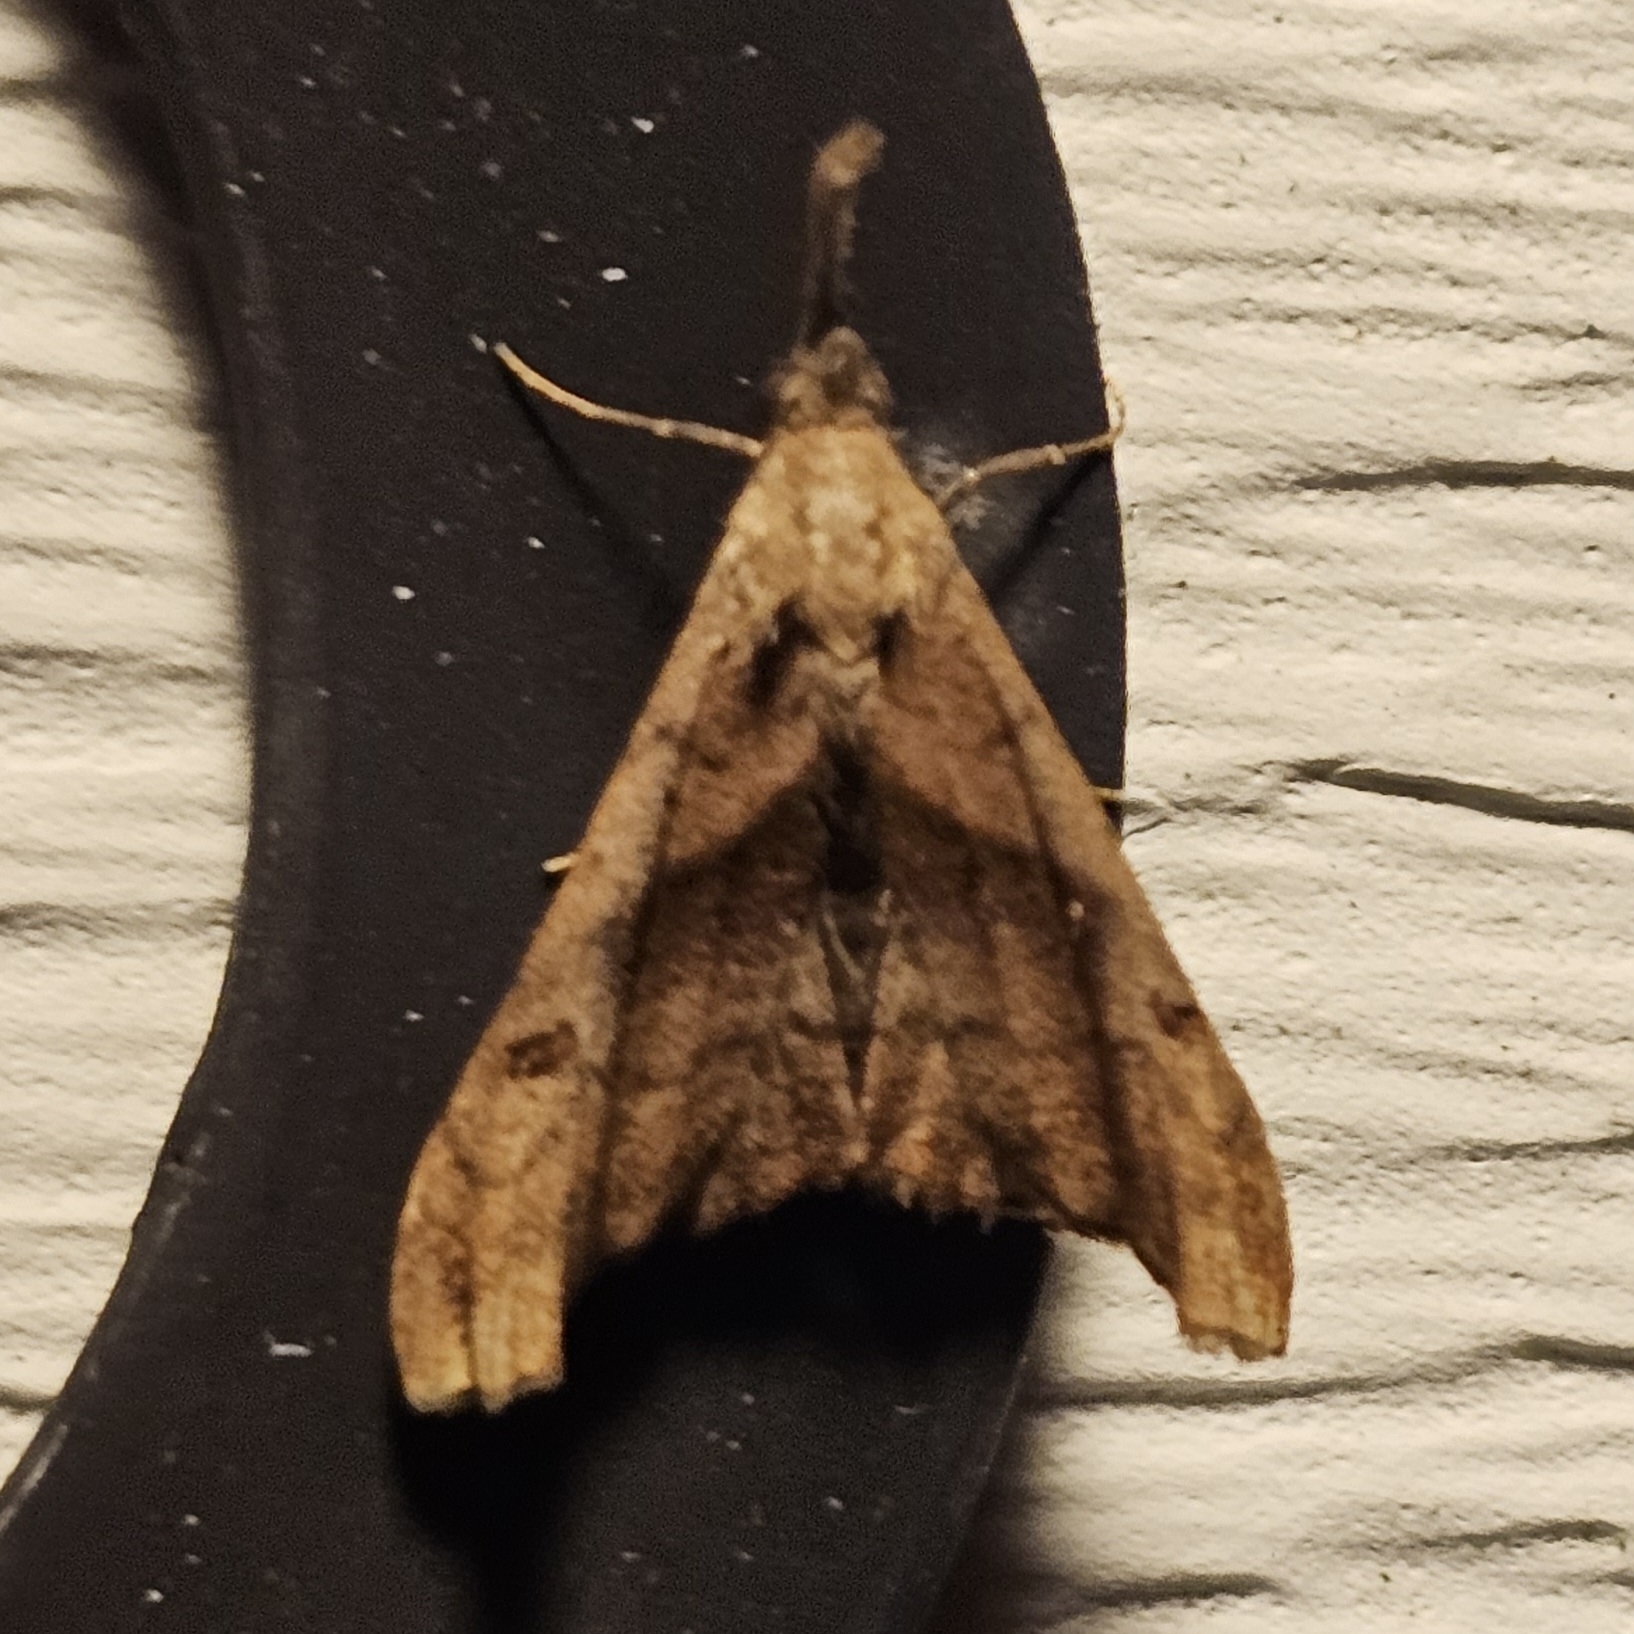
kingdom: Animalia
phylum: Arthropoda
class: Insecta
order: Lepidoptera
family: Erebidae
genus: Palthis
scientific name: Palthis angulalis
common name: Dark-spotted palthis moth
